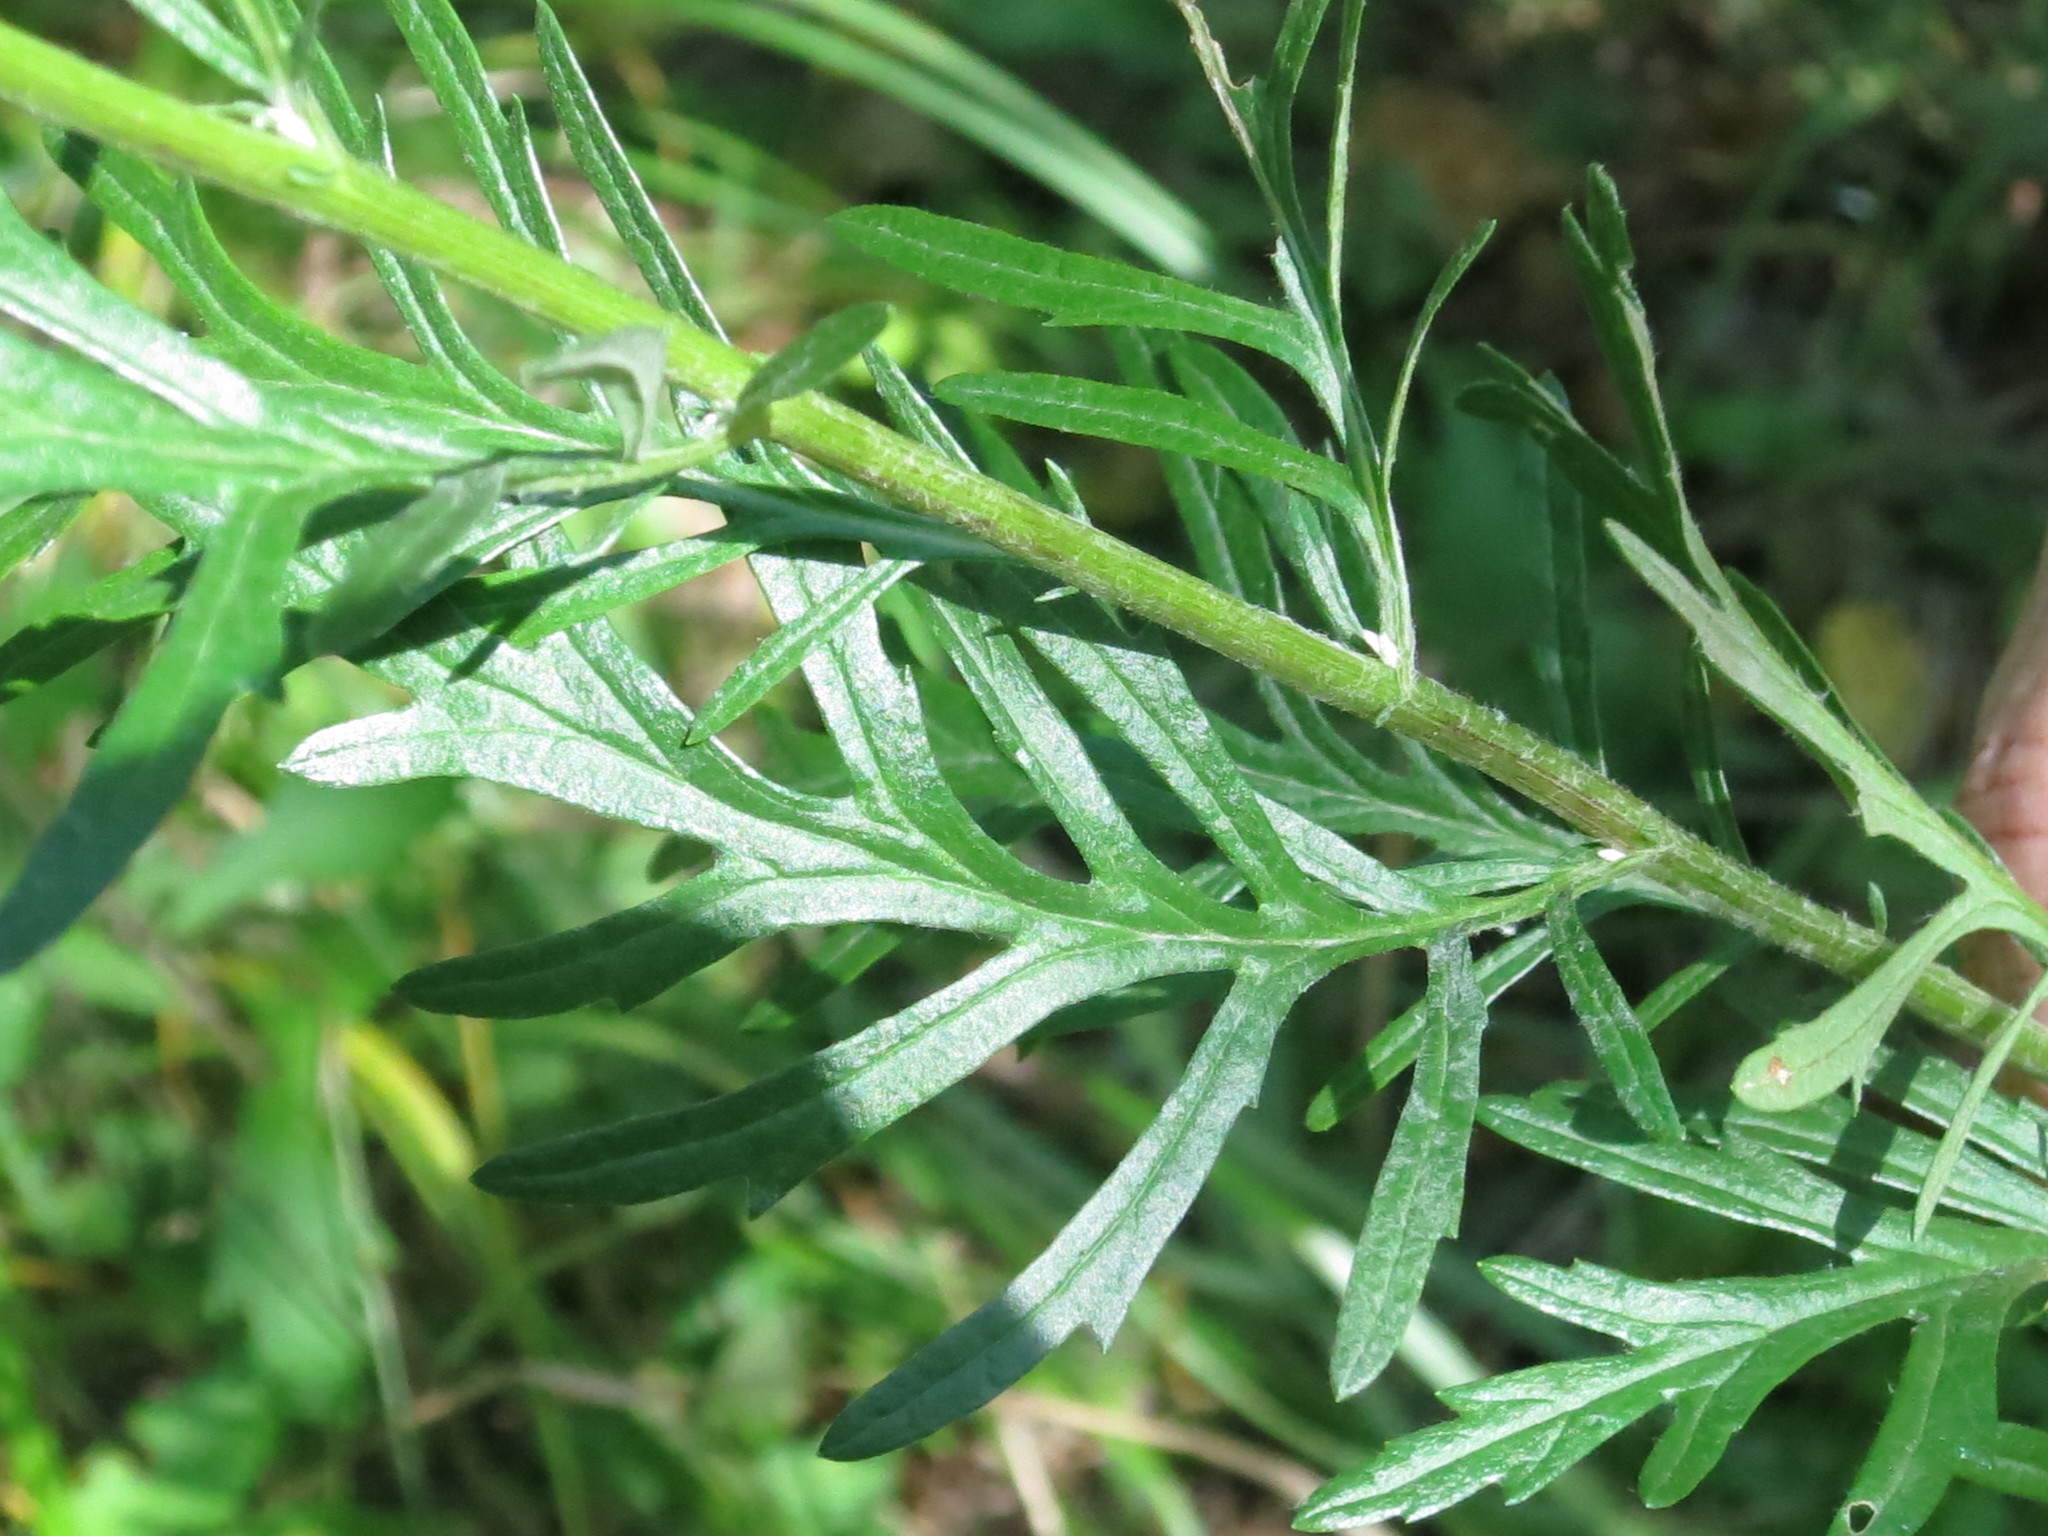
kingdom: Plantae
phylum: Tracheophyta
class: Magnoliopsida
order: Asterales
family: Asteraceae
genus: Jacobaea
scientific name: Jacobaea erucifolia
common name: Hoary ragwort
